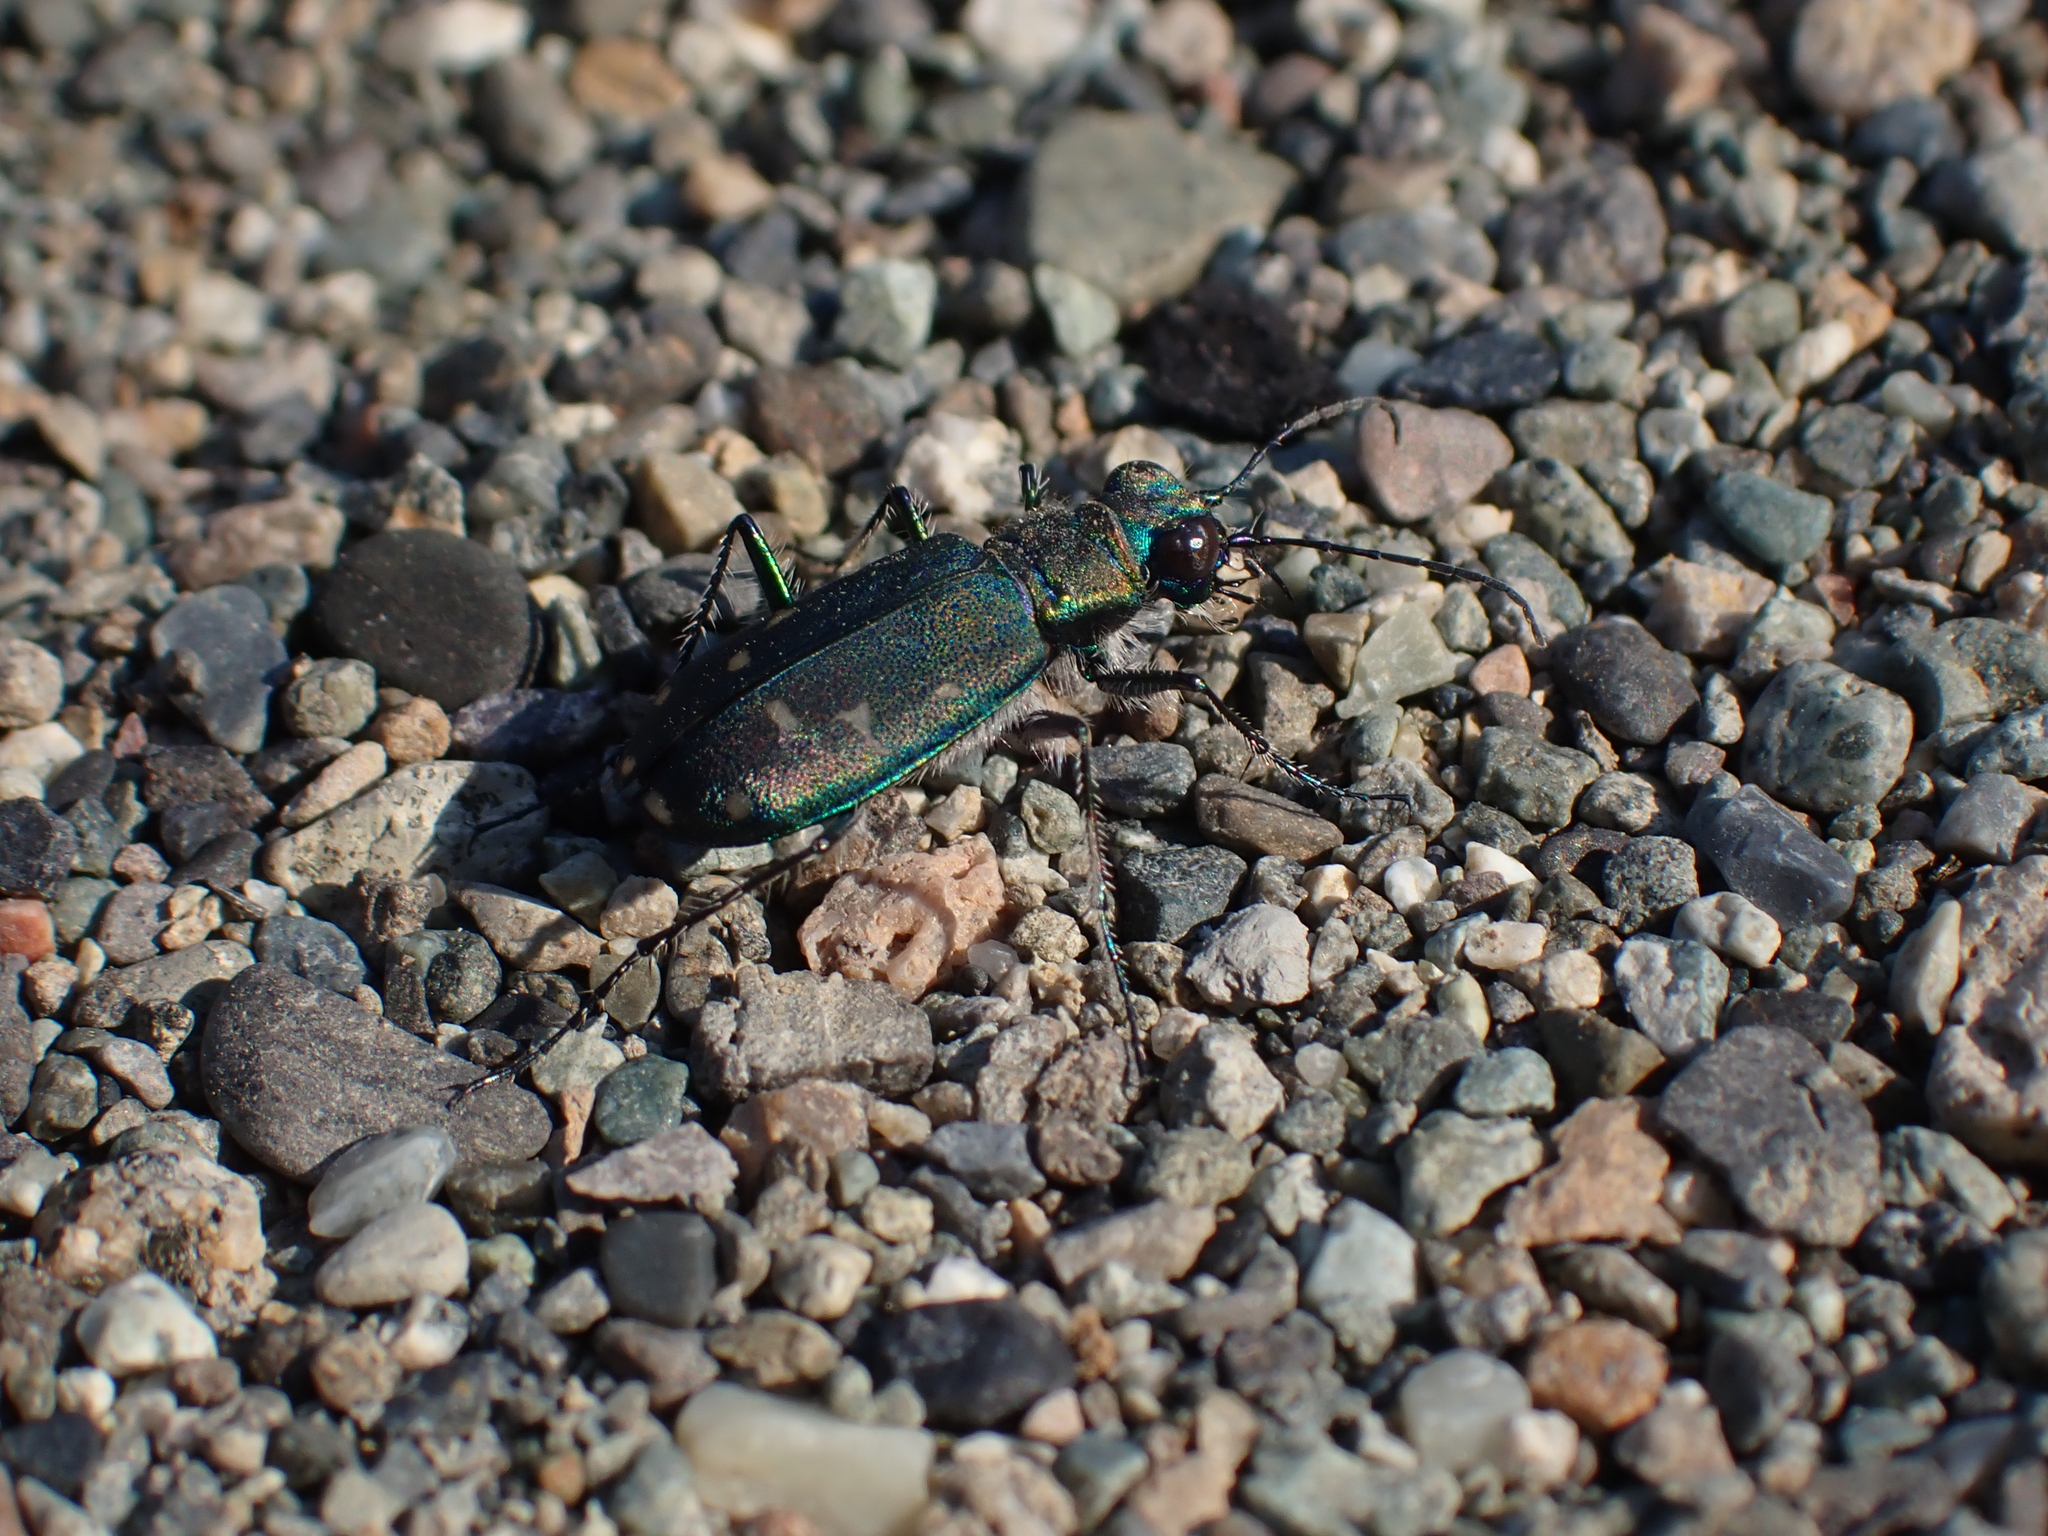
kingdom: Animalia
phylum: Arthropoda
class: Insecta
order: Coleoptera
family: Carabidae
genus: Cicindela
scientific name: Cicindela oregona
